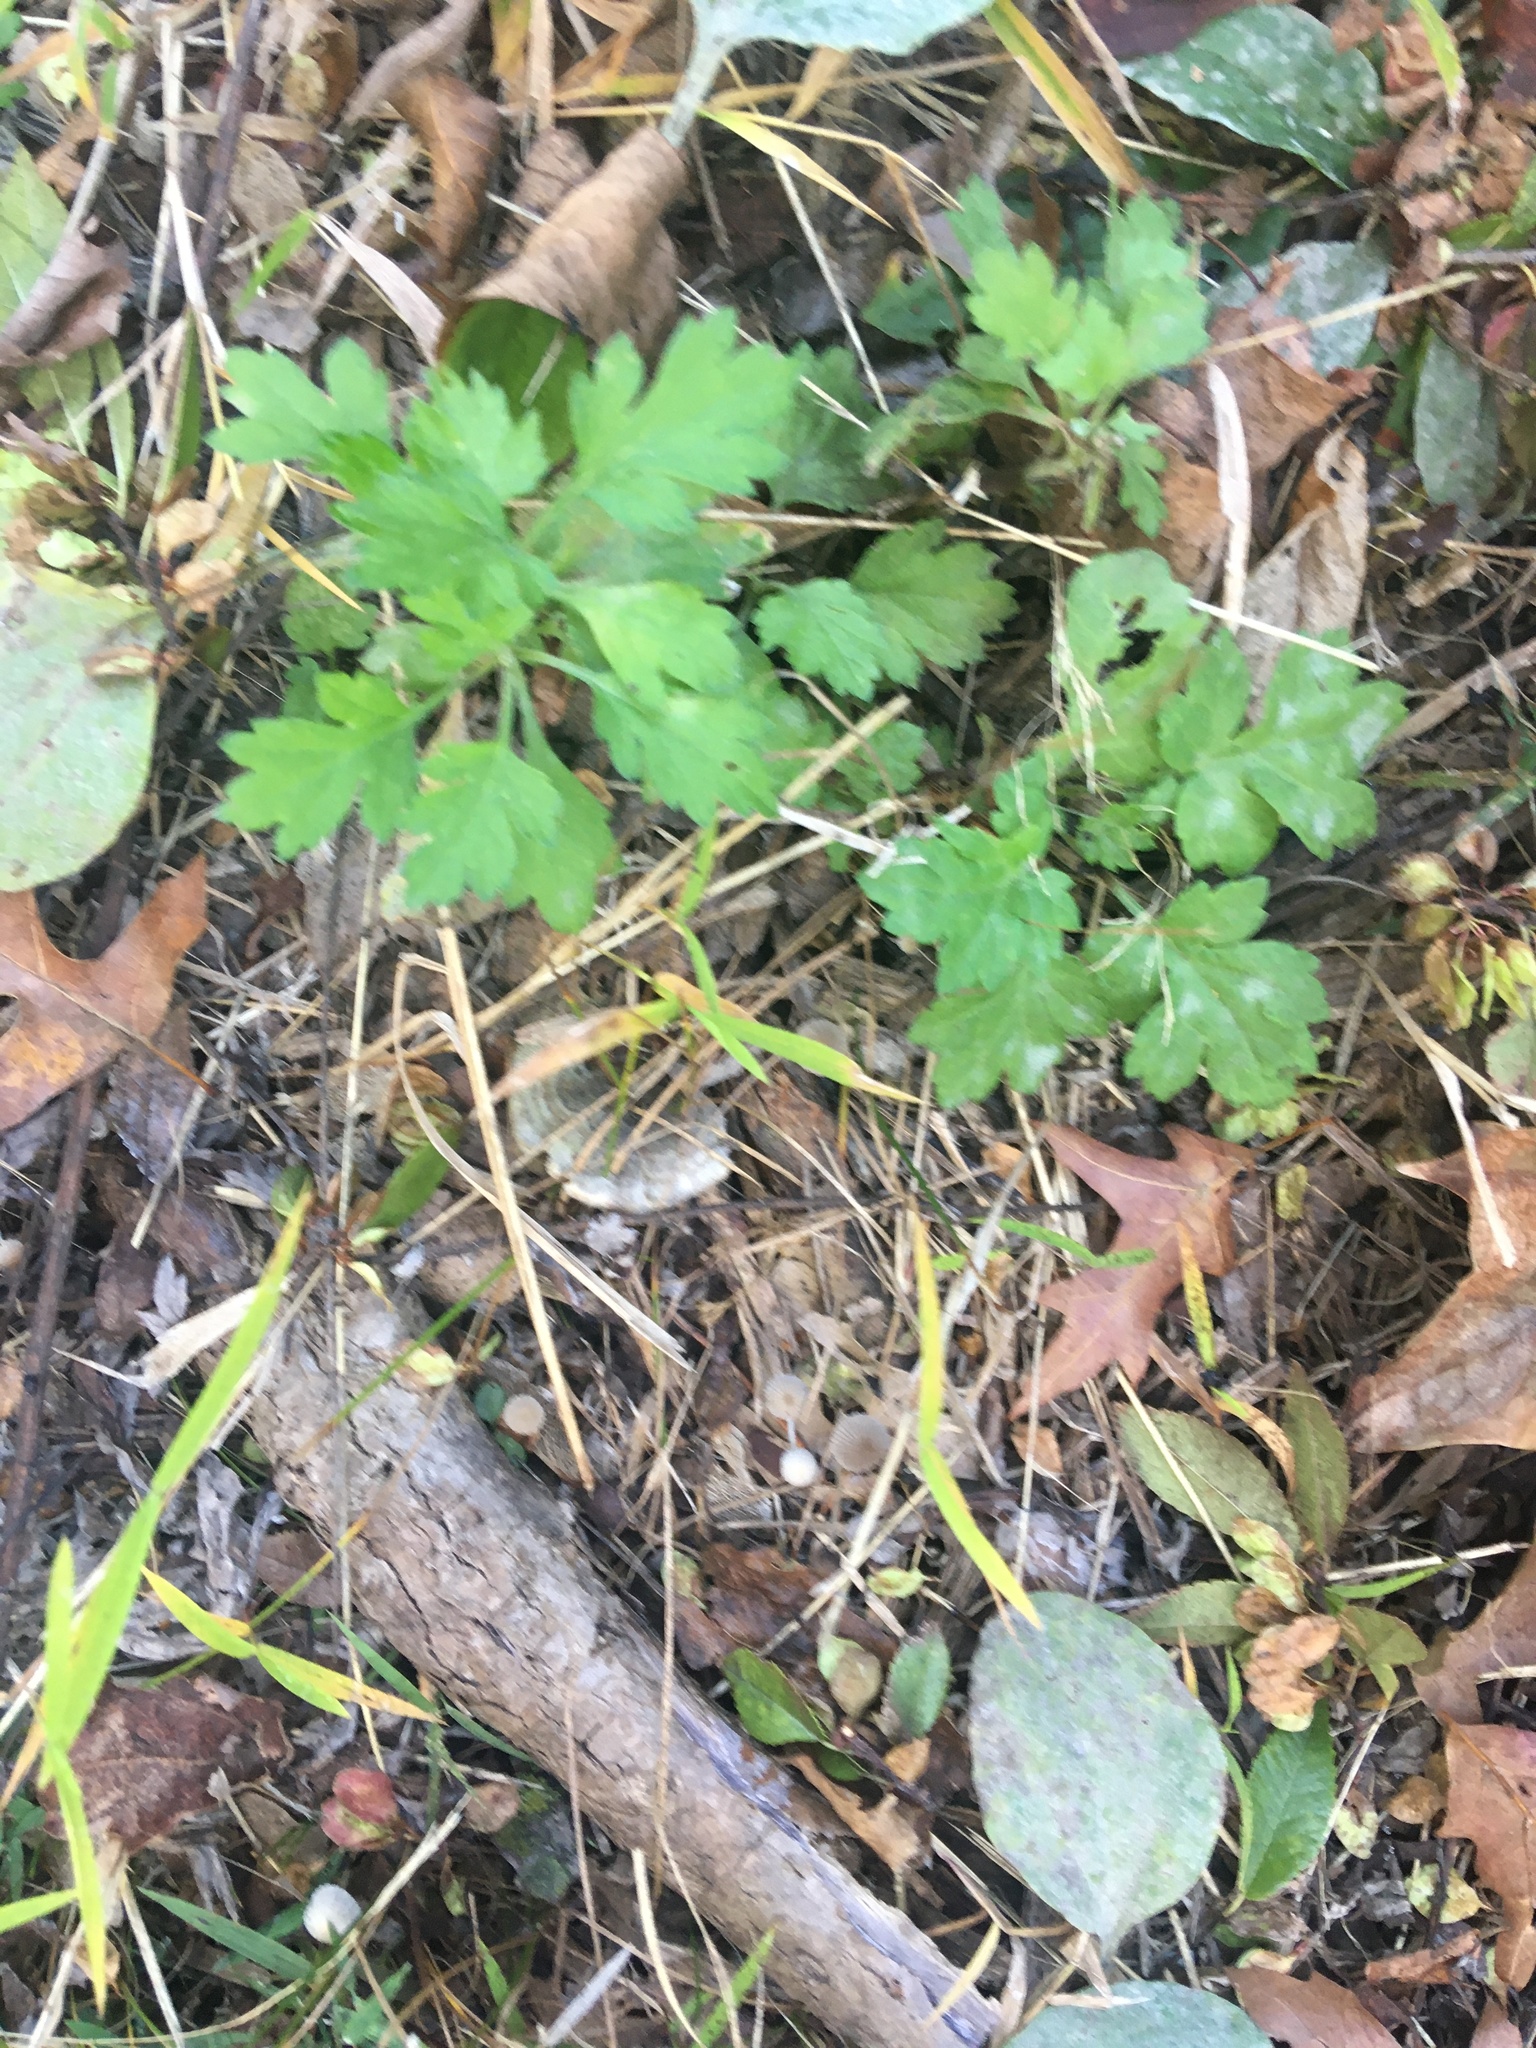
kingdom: Plantae
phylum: Tracheophyta
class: Magnoliopsida
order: Asterales
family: Asteraceae
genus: Artemisia
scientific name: Artemisia vulgaris
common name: Mugwort
